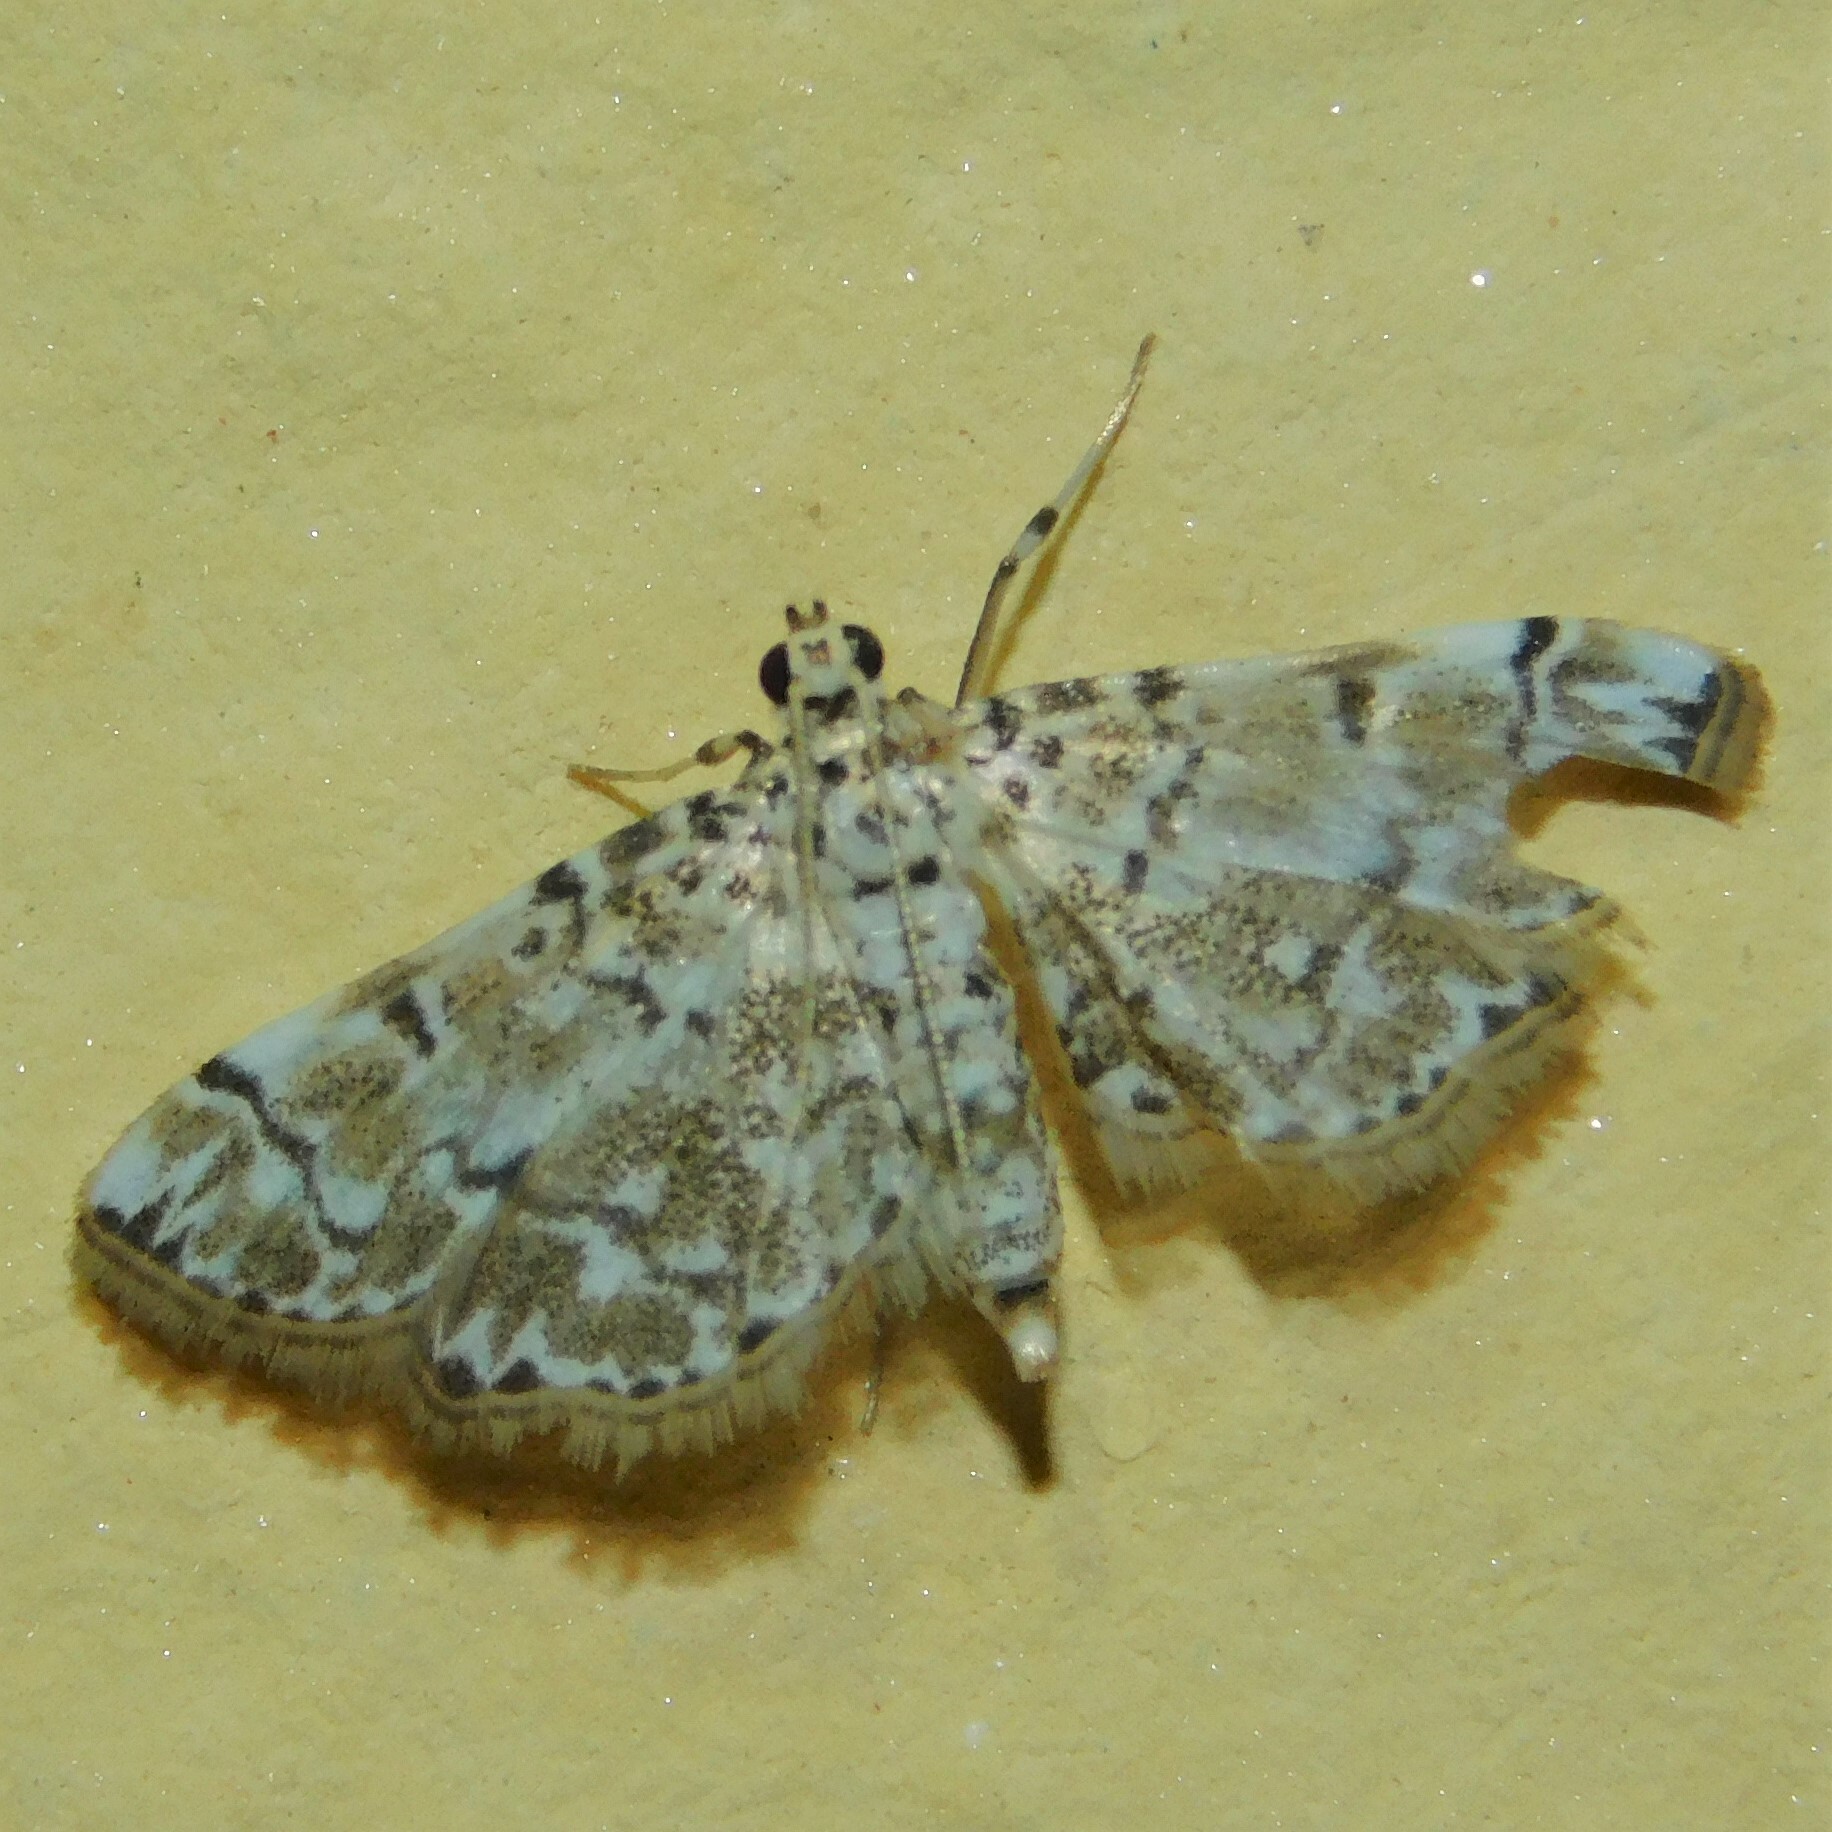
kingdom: Animalia
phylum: Arthropoda
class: Insecta
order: Lepidoptera
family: Crambidae
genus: Metoeca
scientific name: Metoeca foedalis
